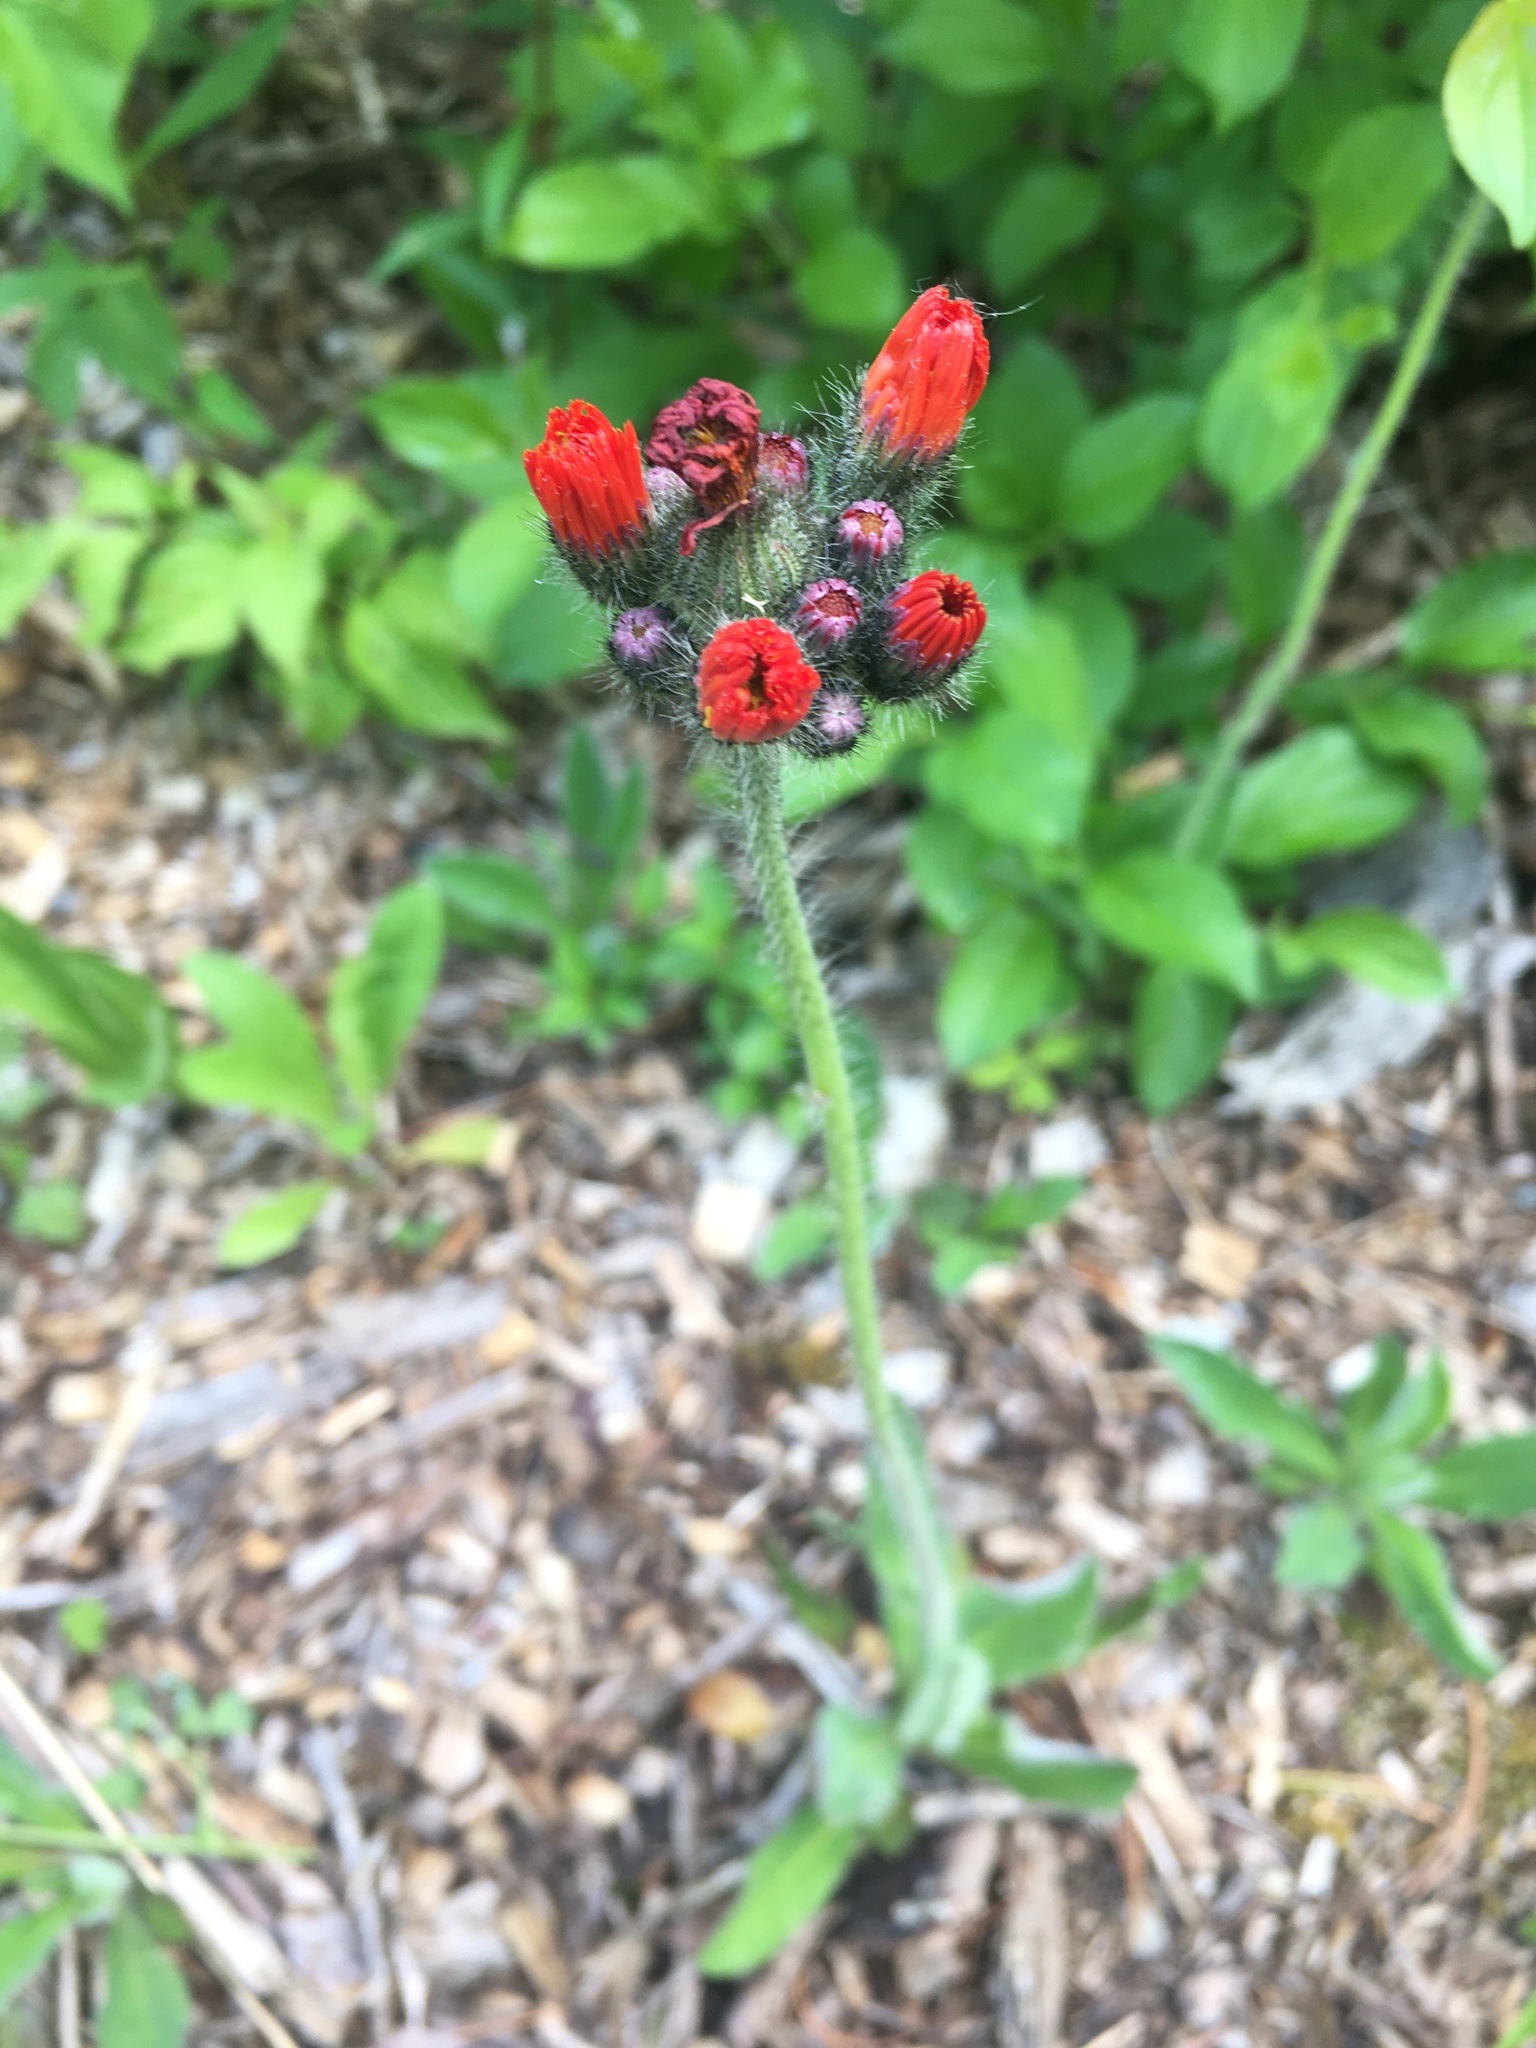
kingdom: Plantae
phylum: Tracheophyta
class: Magnoliopsida
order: Asterales
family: Asteraceae
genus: Pilosella
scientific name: Pilosella aurantiaca
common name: Fox-and-cubs
